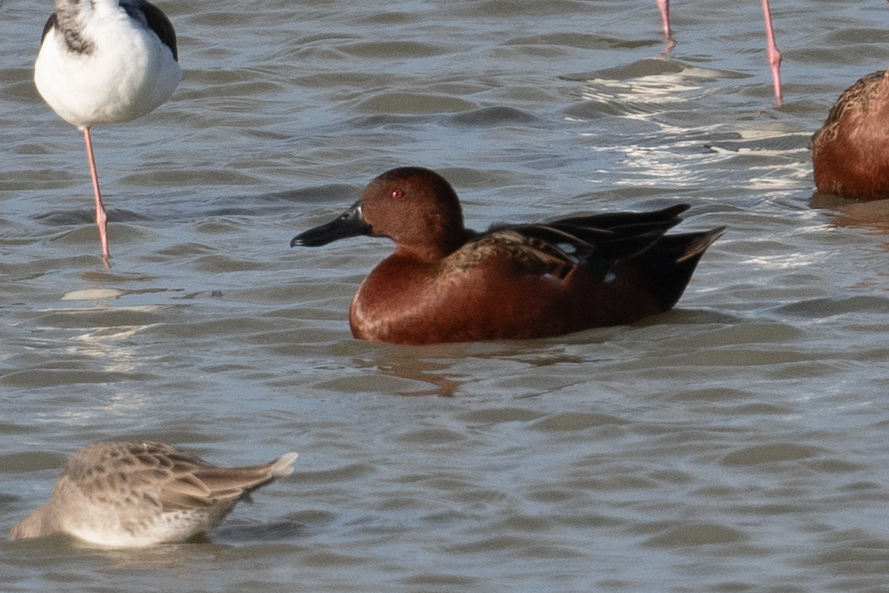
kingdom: Animalia
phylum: Chordata
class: Aves
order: Anseriformes
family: Anatidae
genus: Spatula
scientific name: Spatula cyanoptera
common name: Cinnamon teal
